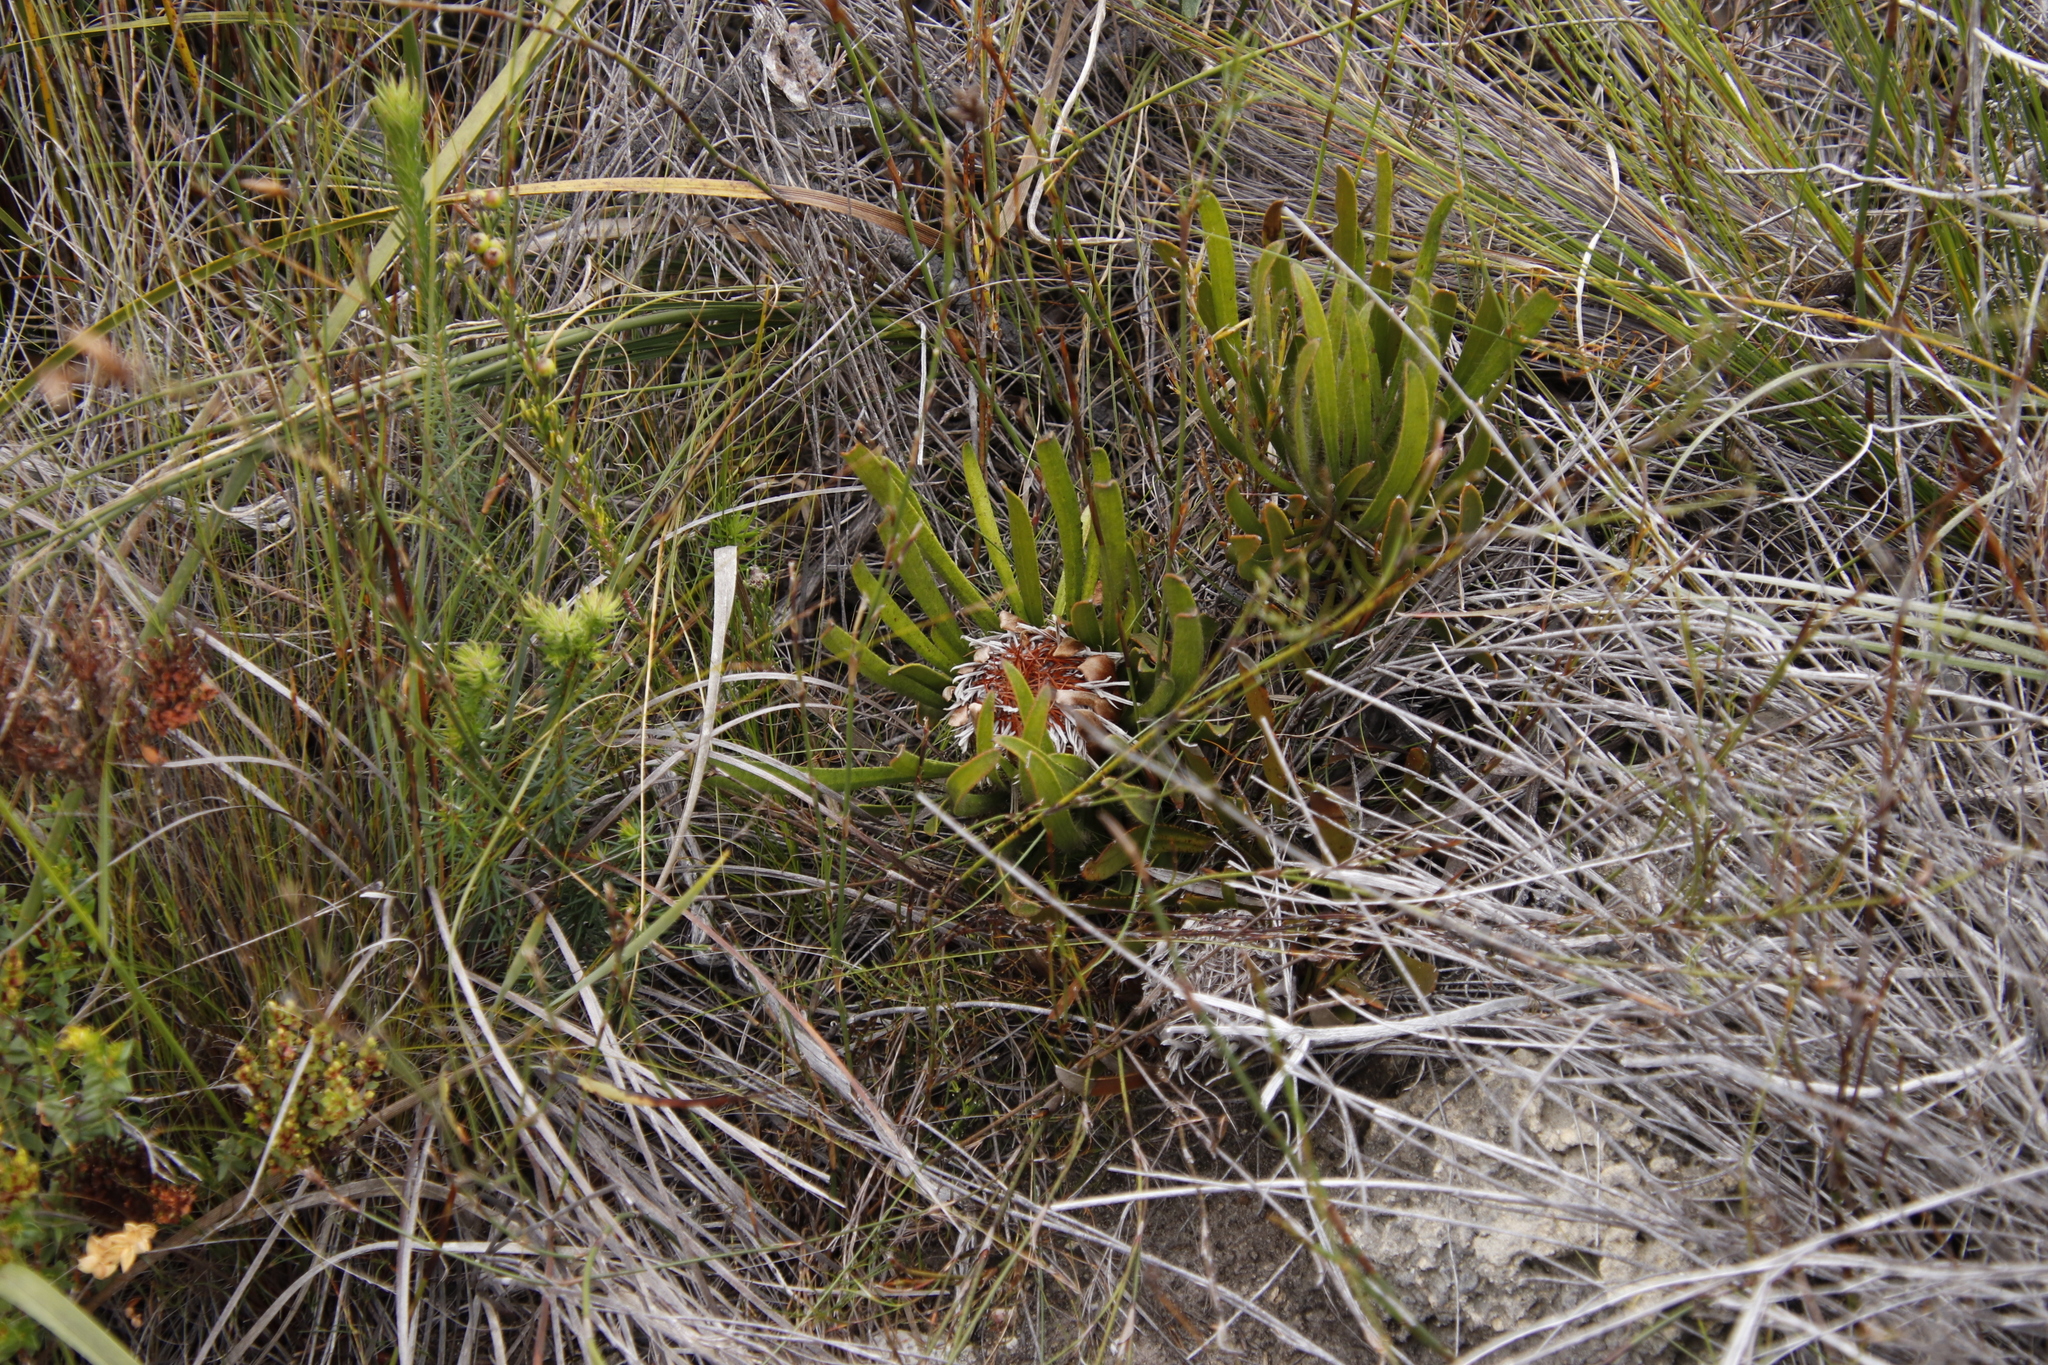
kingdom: Plantae
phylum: Tracheophyta
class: Magnoliopsida
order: Proteales
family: Proteaceae
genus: Protea
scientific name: Protea aspera
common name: Rough-leaf sugarbush
